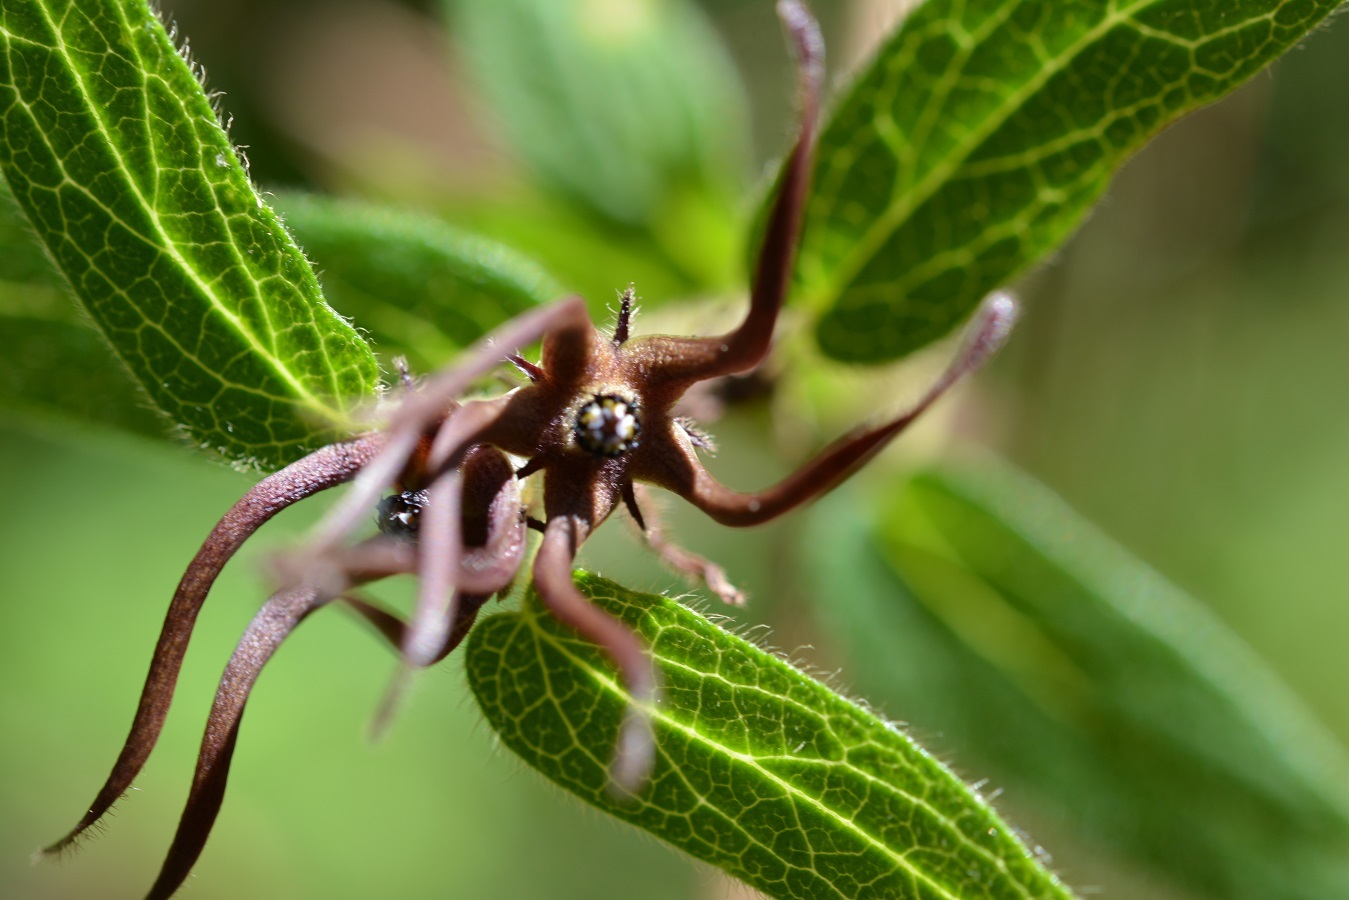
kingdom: Plantae
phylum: Tracheophyta
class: Magnoliopsida
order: Gentianales
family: Apocynaceae
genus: Matelea
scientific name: Matelea medusae
